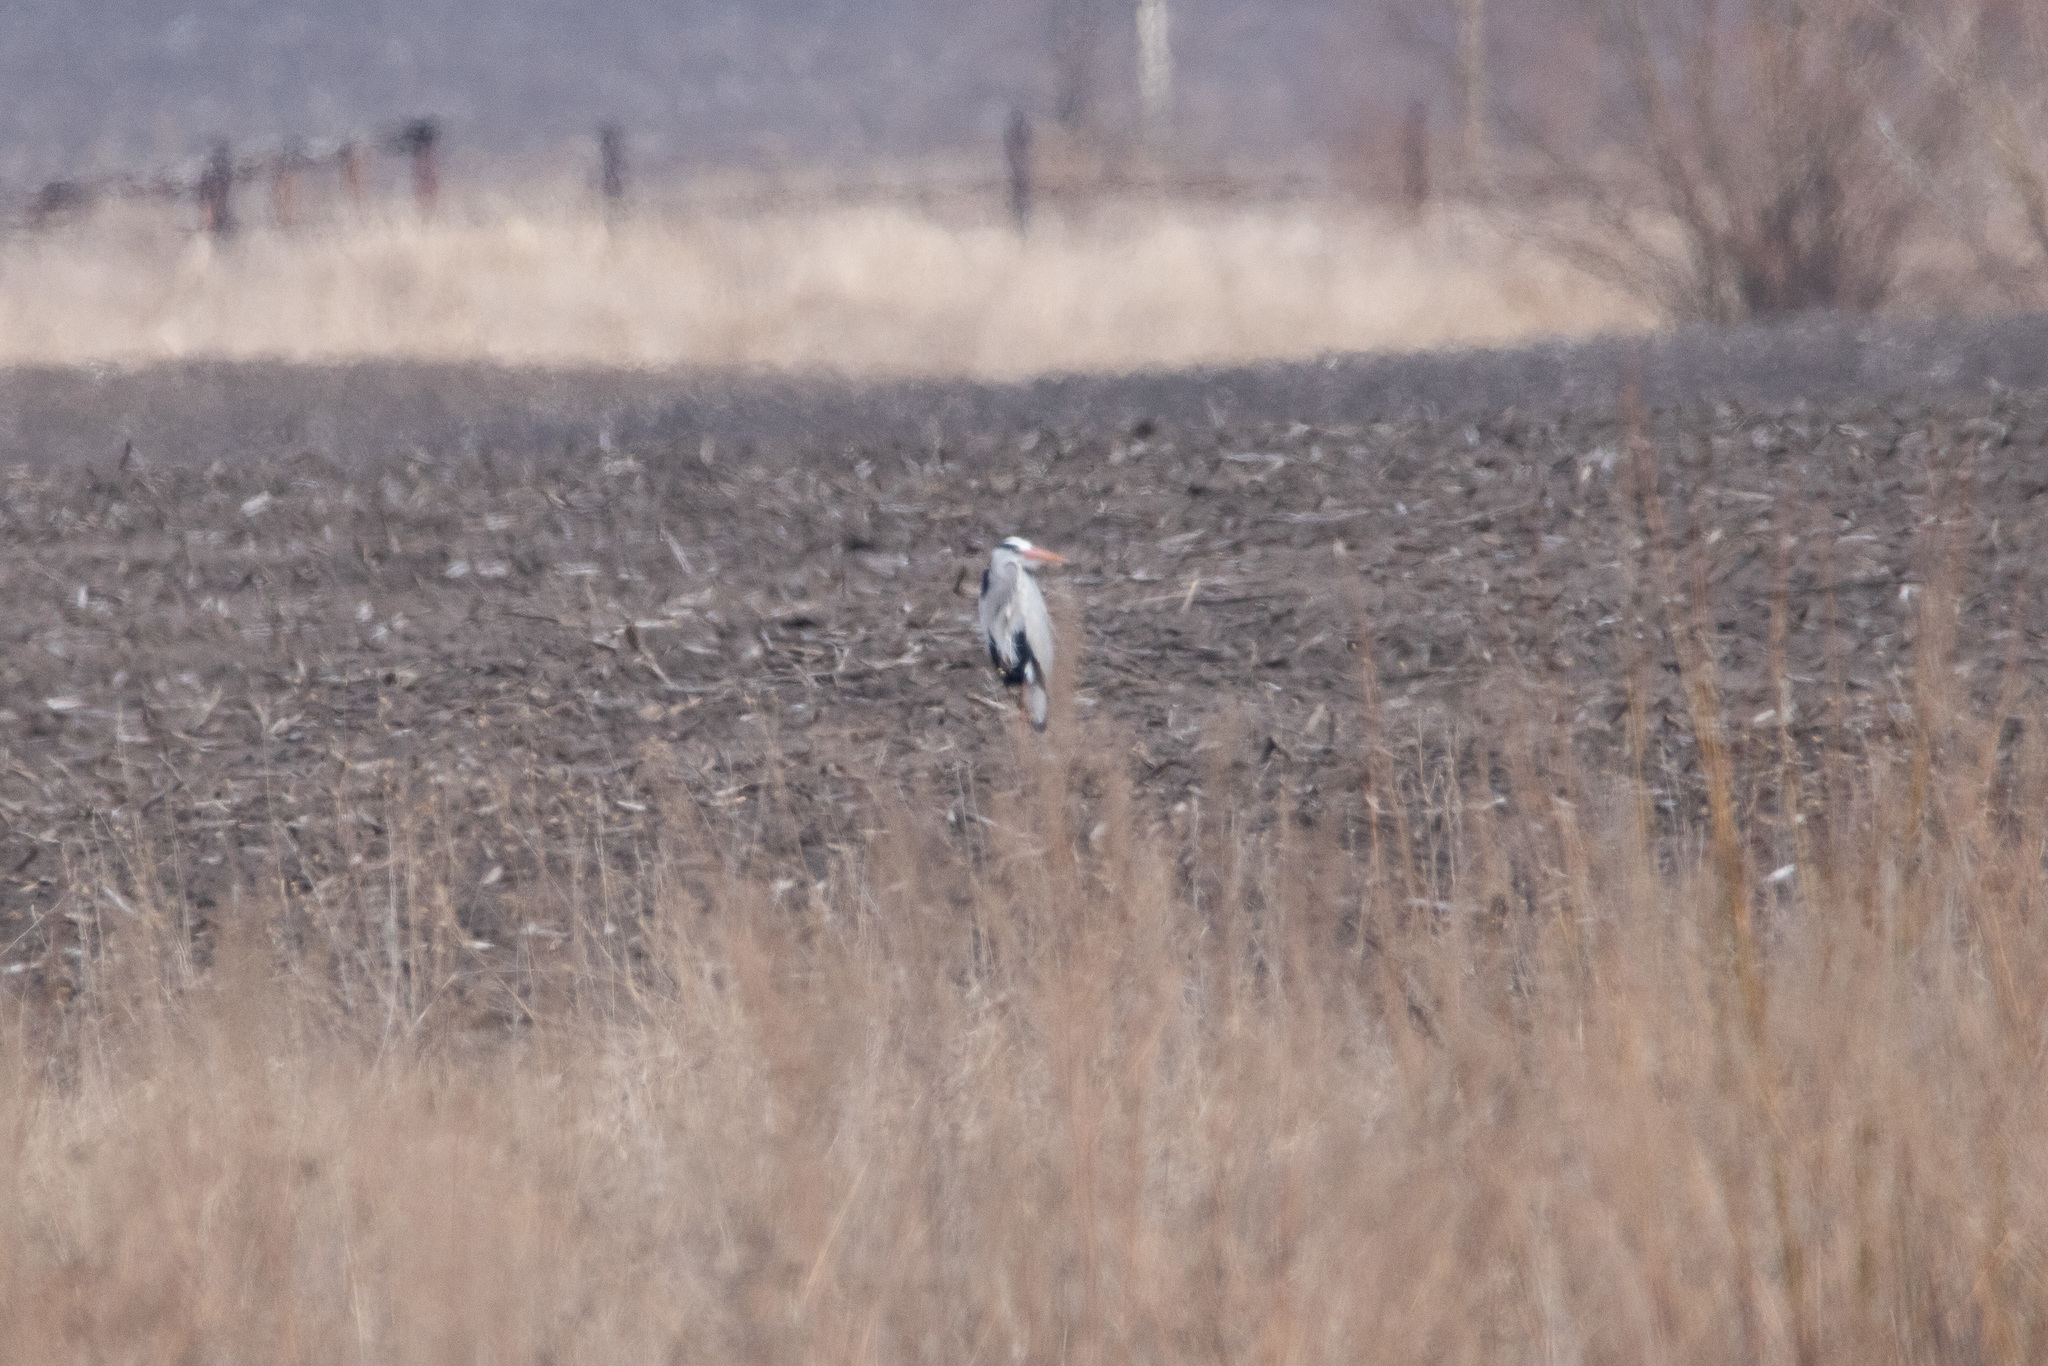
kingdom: Animalia
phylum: Chordata
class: Aves
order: Pelecaniformes
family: Ardeidae
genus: Ardea
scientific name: Ardea cinerea
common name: Grey heron
